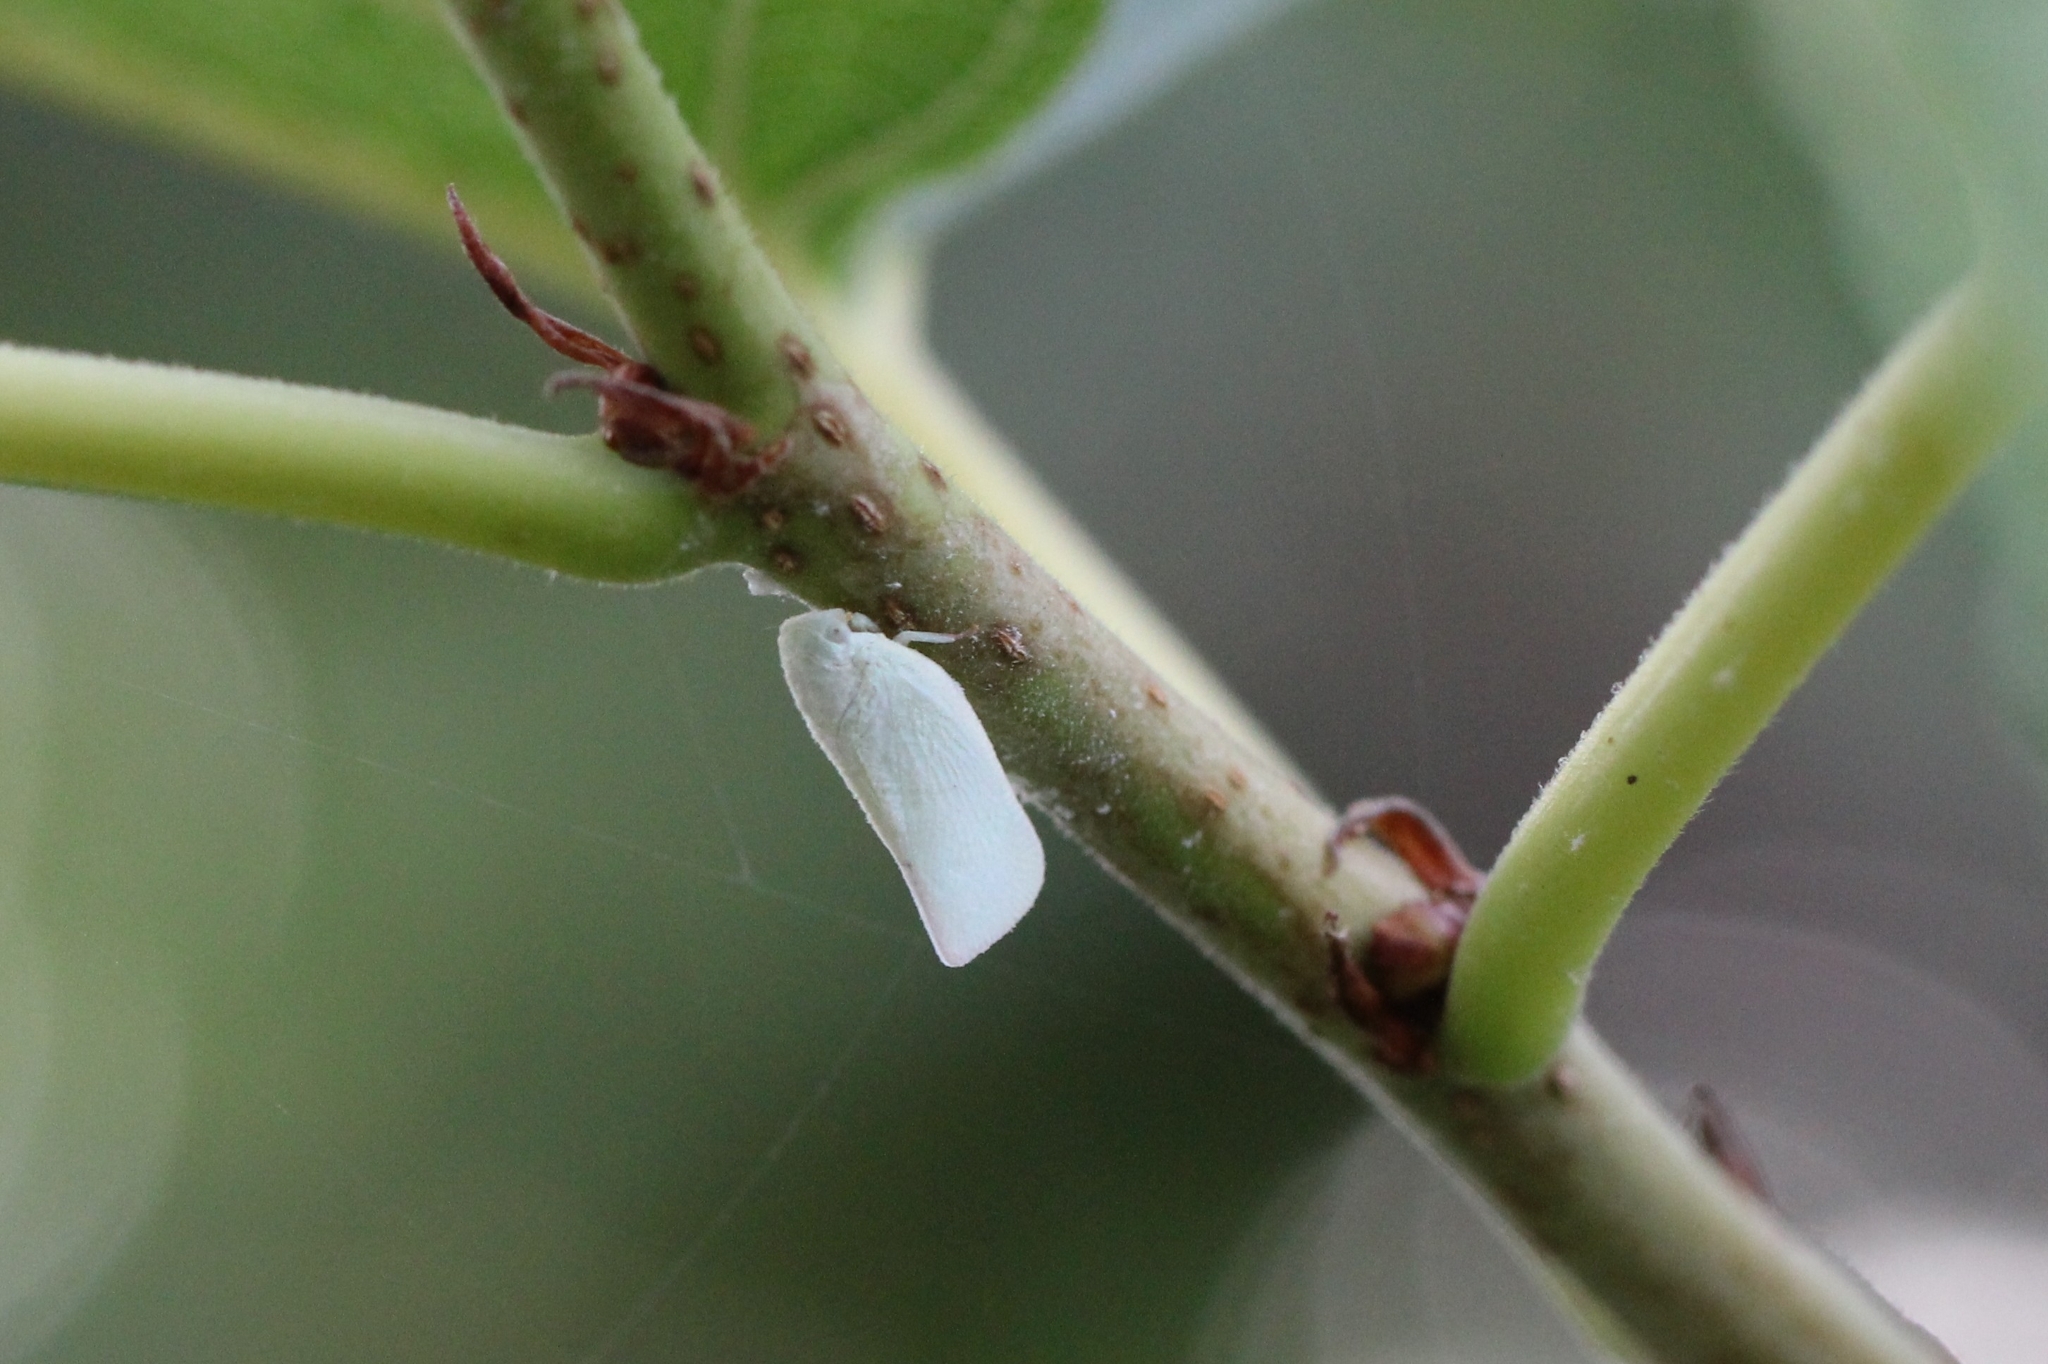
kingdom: Animalia
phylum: Arthropoda
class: Insecta
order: Hemiptera
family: Flatidae
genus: Flatormenis
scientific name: Flatormenis proxima
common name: Northern flatid planthopper
